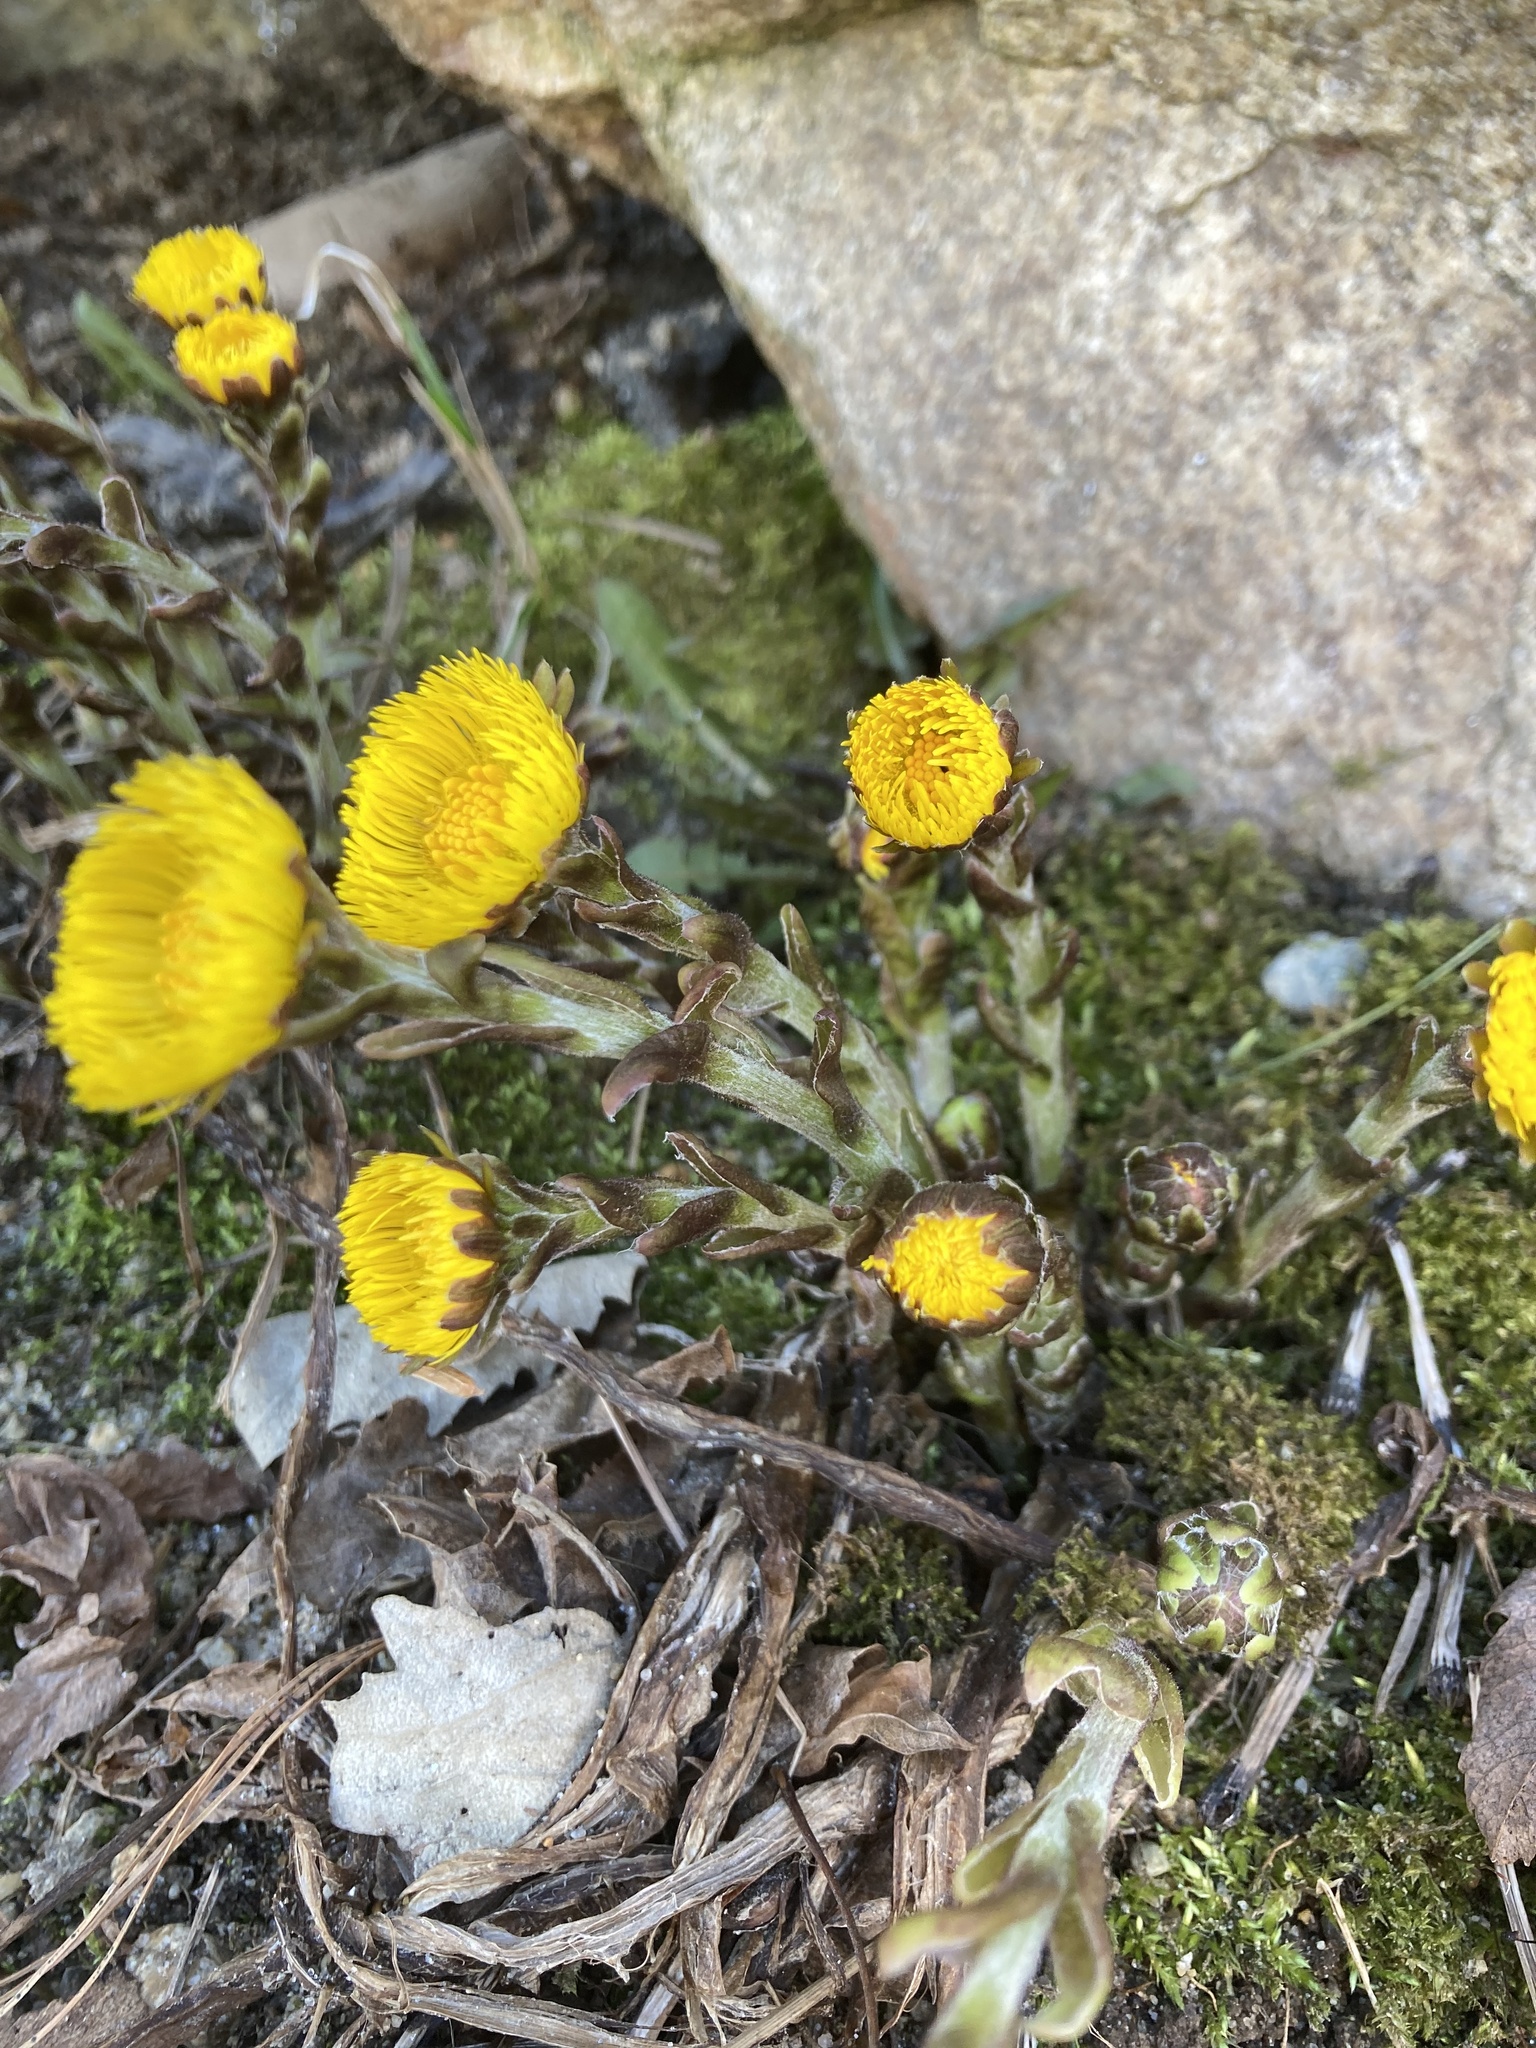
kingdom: Plantae
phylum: Tracheophyta
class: Magnoliopsida
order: Asterales
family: Asteraceae
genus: Tussilago
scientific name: Tussilago farfara
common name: Coltsfoot
